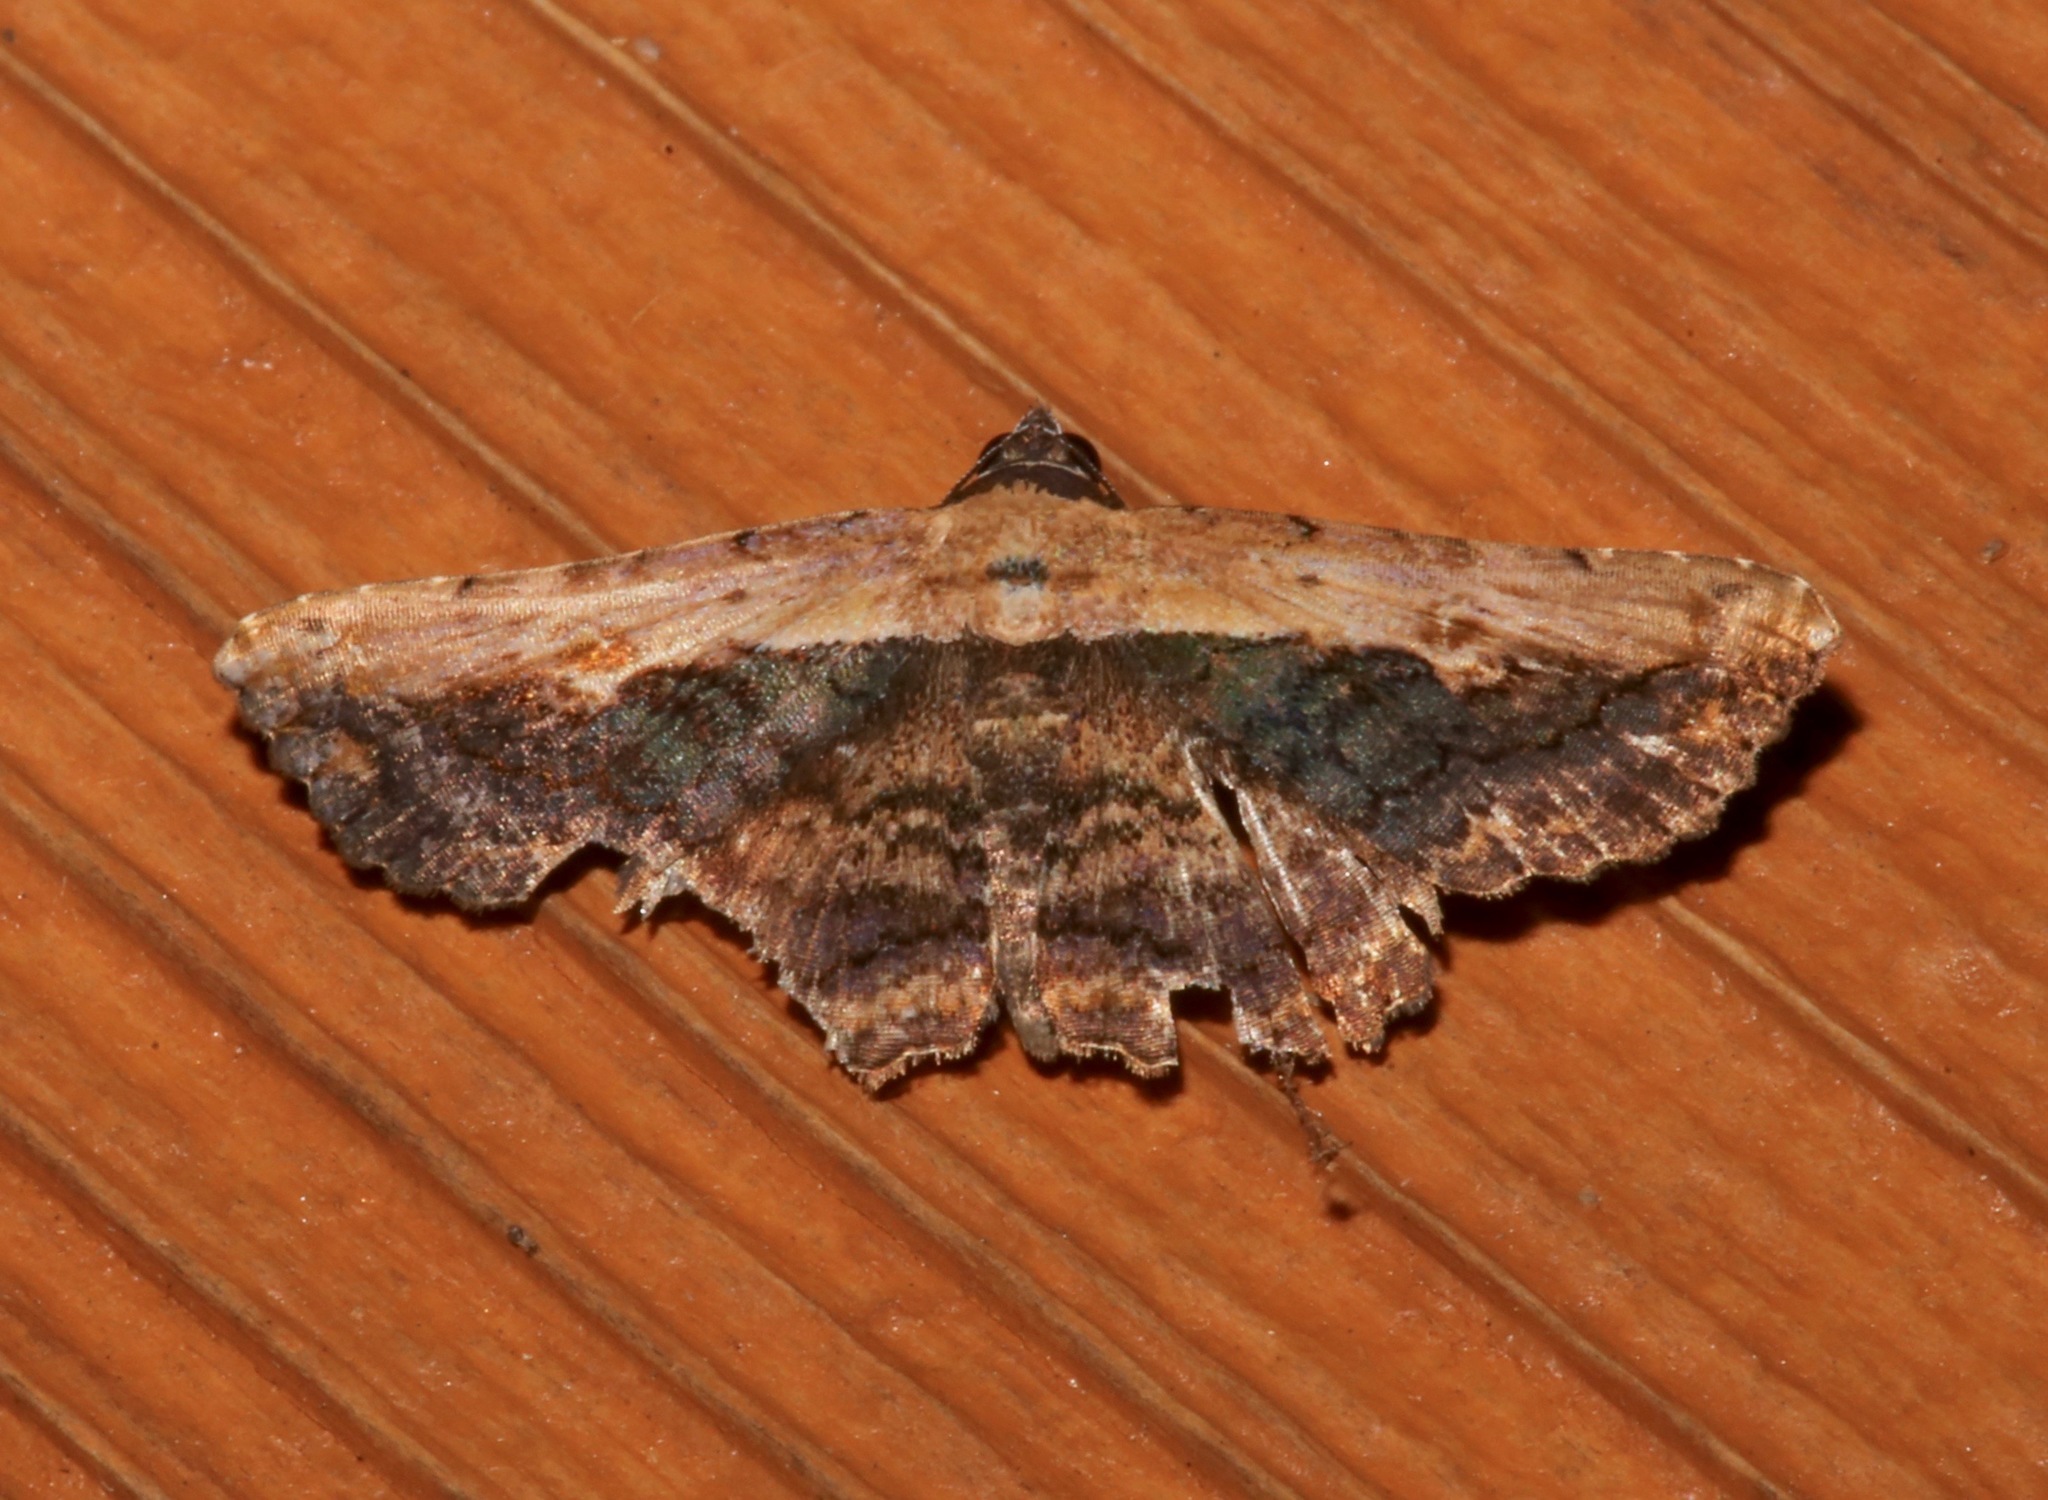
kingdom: Animalia
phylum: Arthropoda
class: Insecta
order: Lepidoptera
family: Erebidae
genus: Selenisa
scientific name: Selenisa sueroides
